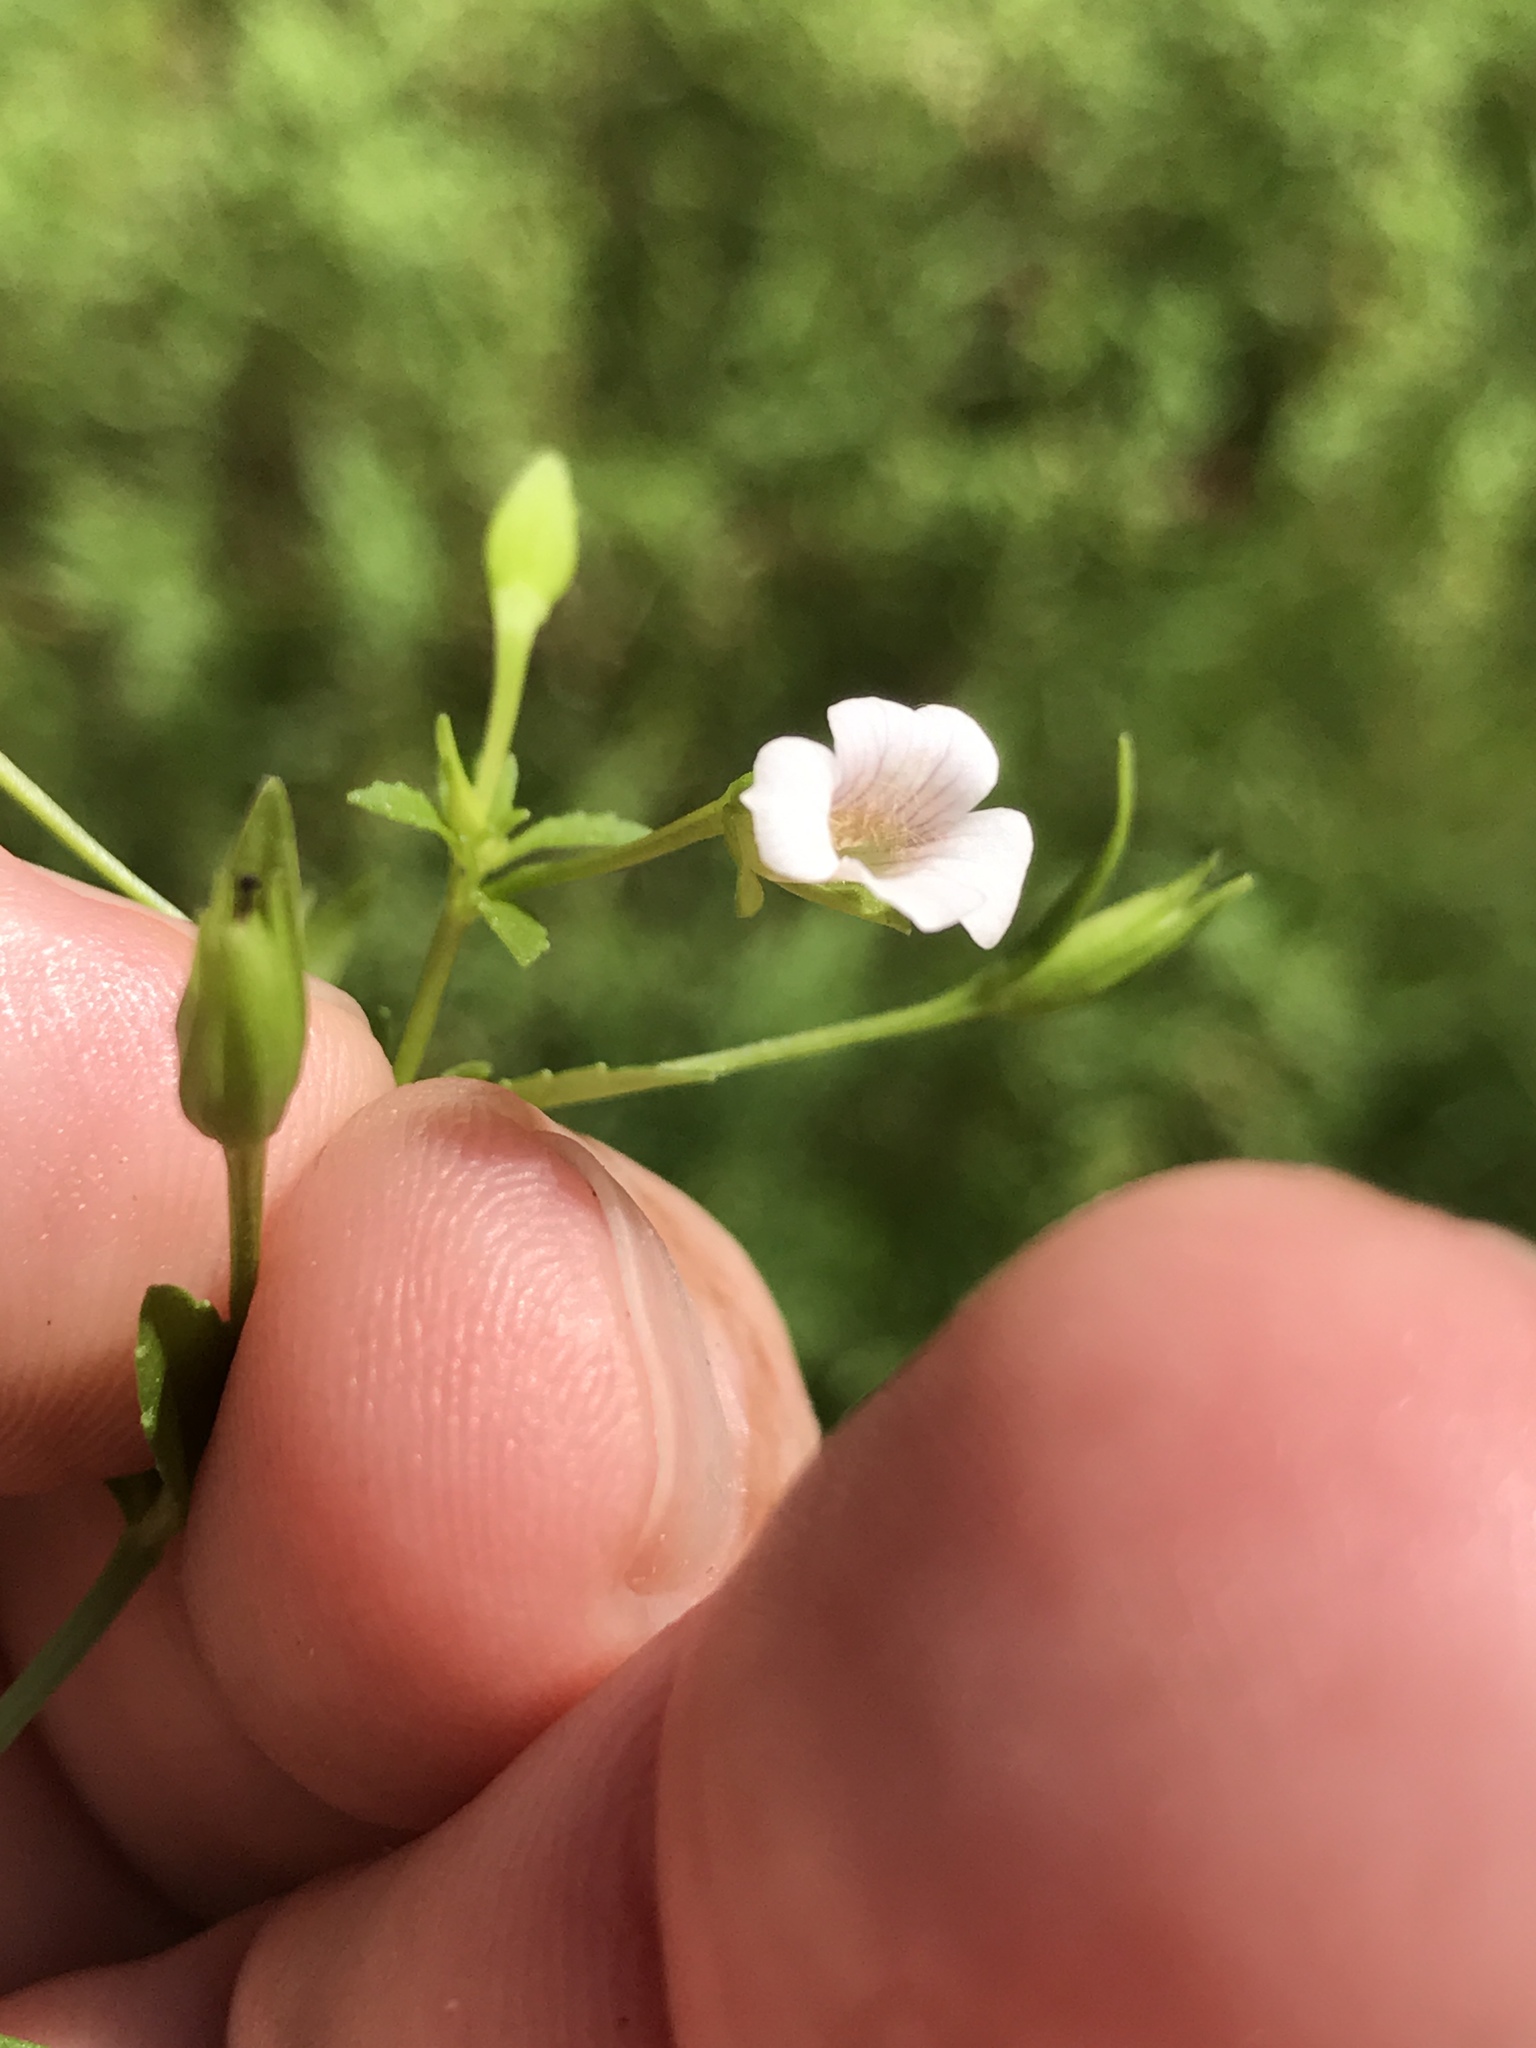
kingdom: Plantae
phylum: Tracheophyta
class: Magnoliopsida
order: Lamiales
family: Plantaginaceae
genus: Mecardonia
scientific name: Mecardonia acuminata
